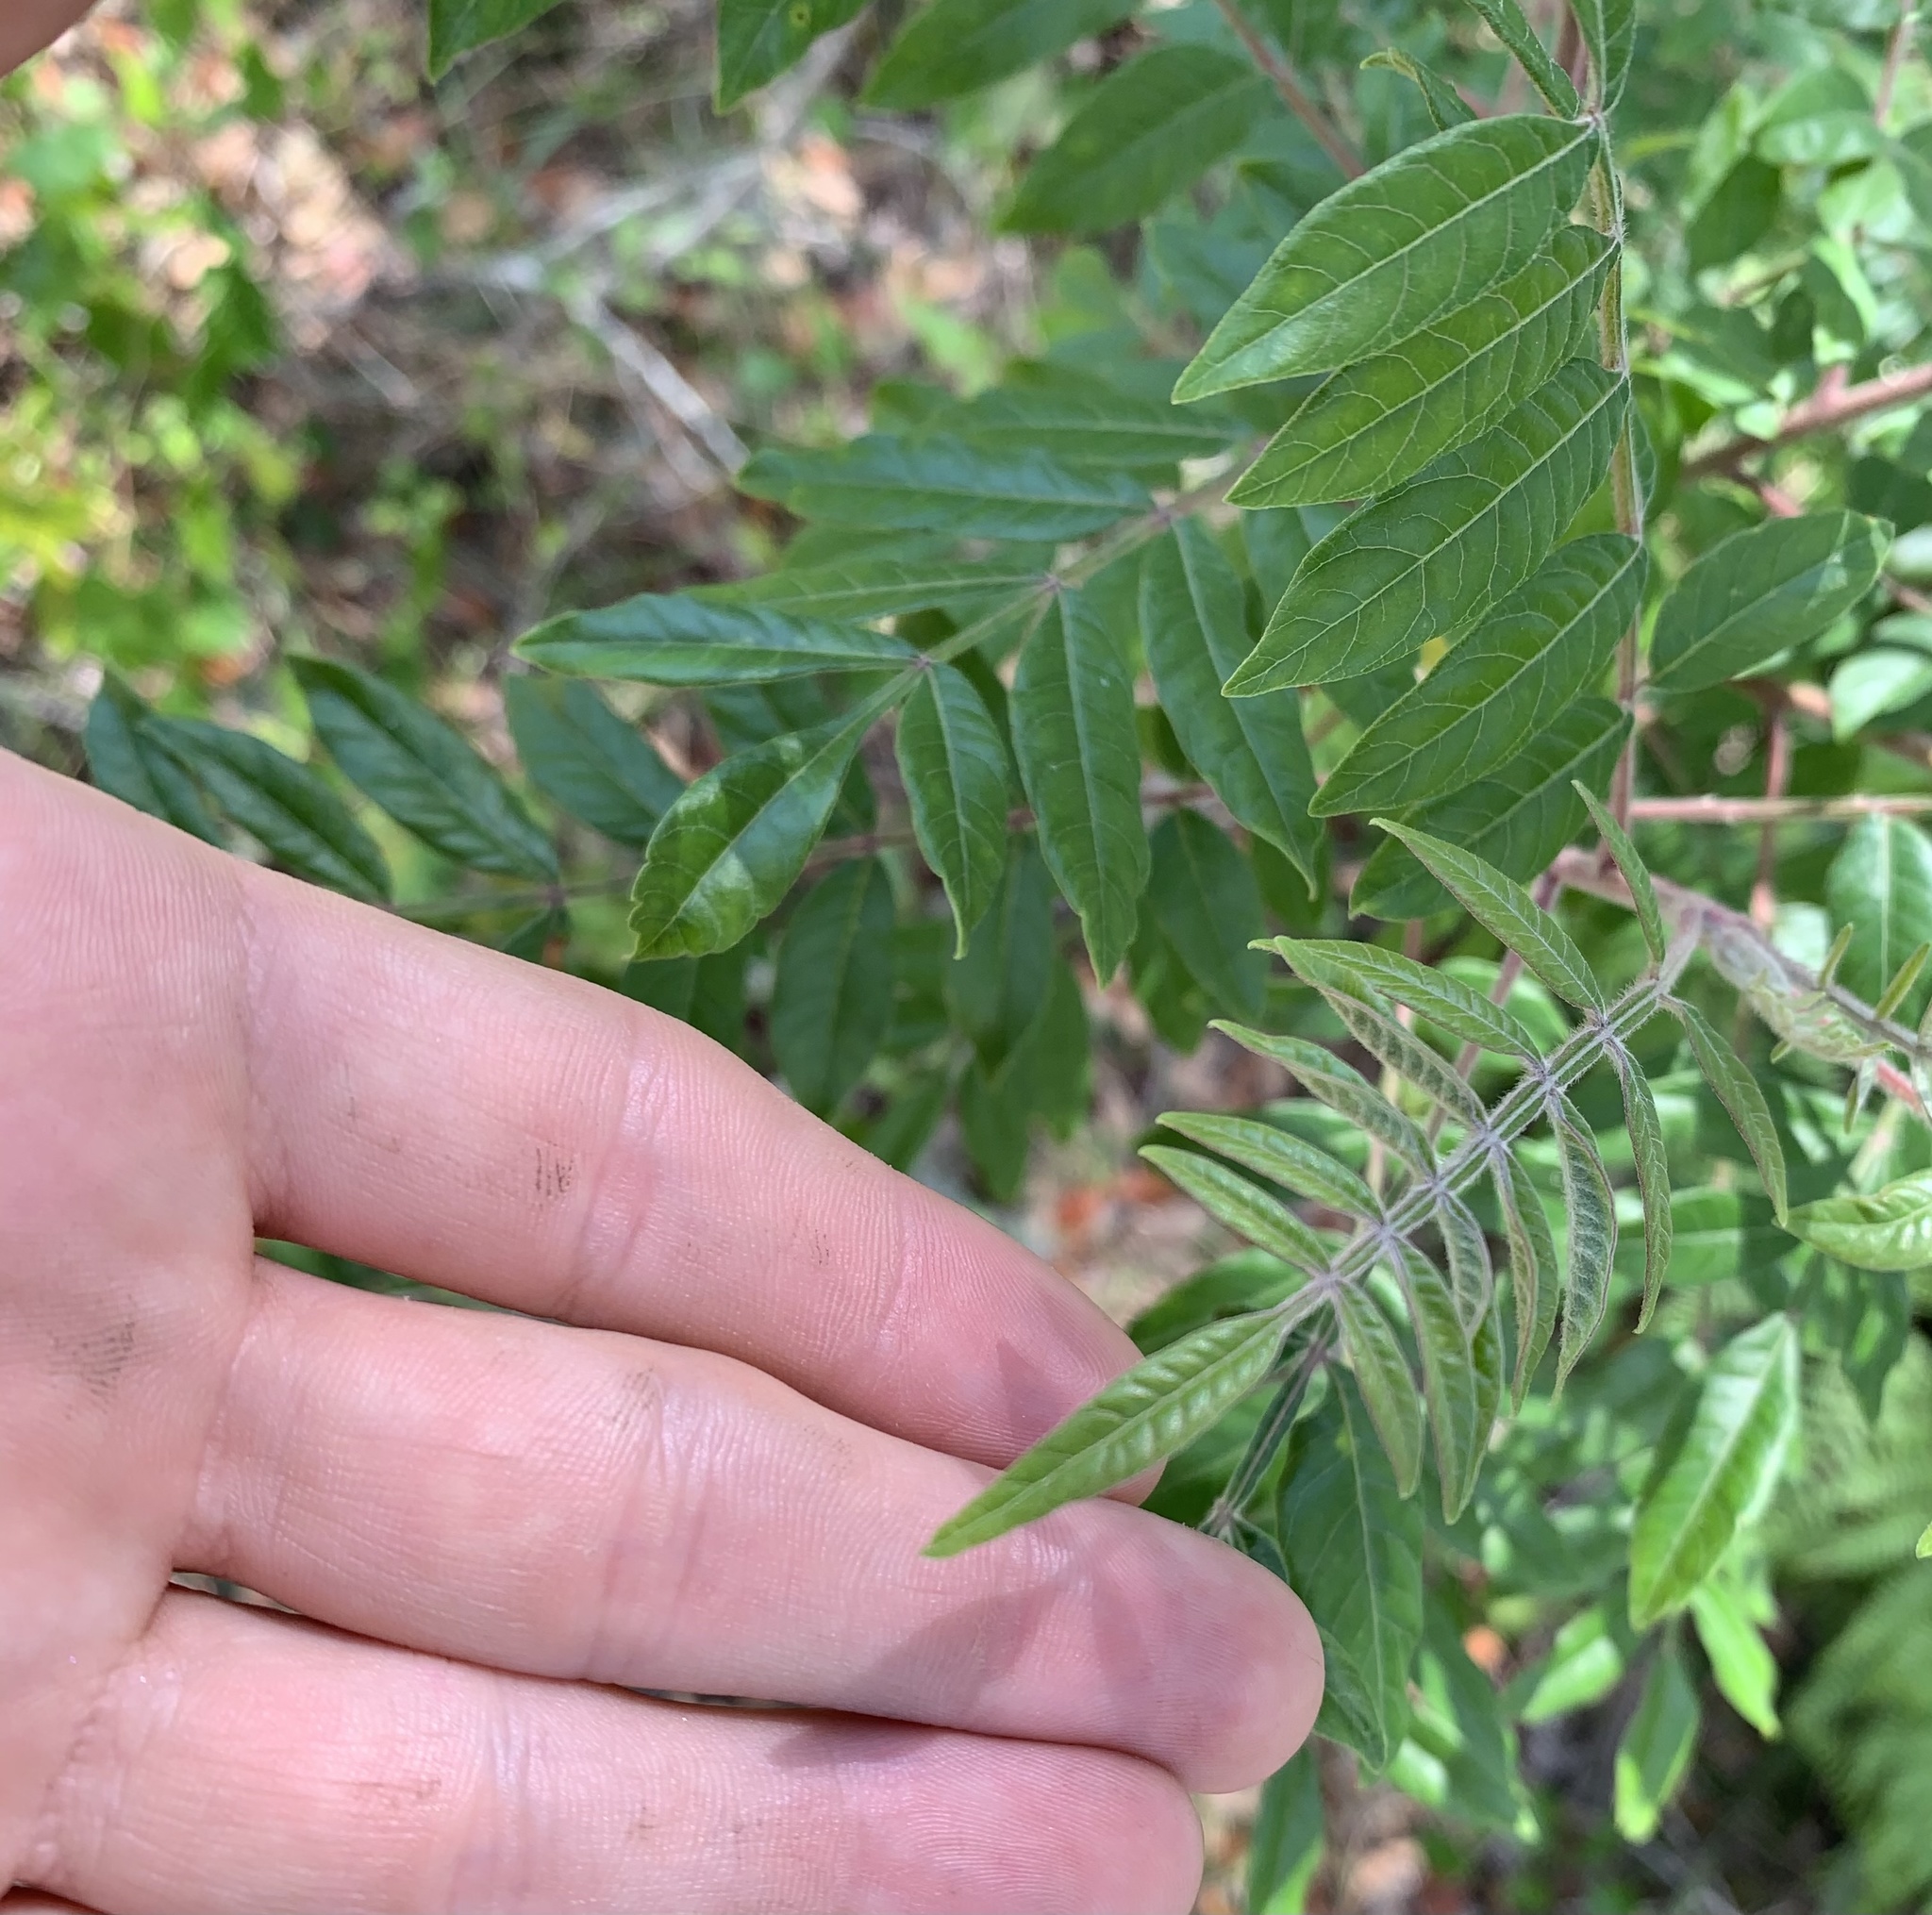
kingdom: Plantae
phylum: Tracheophyta
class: Magnoliopsida
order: Sapindales
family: Anacardiaceae
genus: Rhus
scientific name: Rhus copallina
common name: Shining sumac
